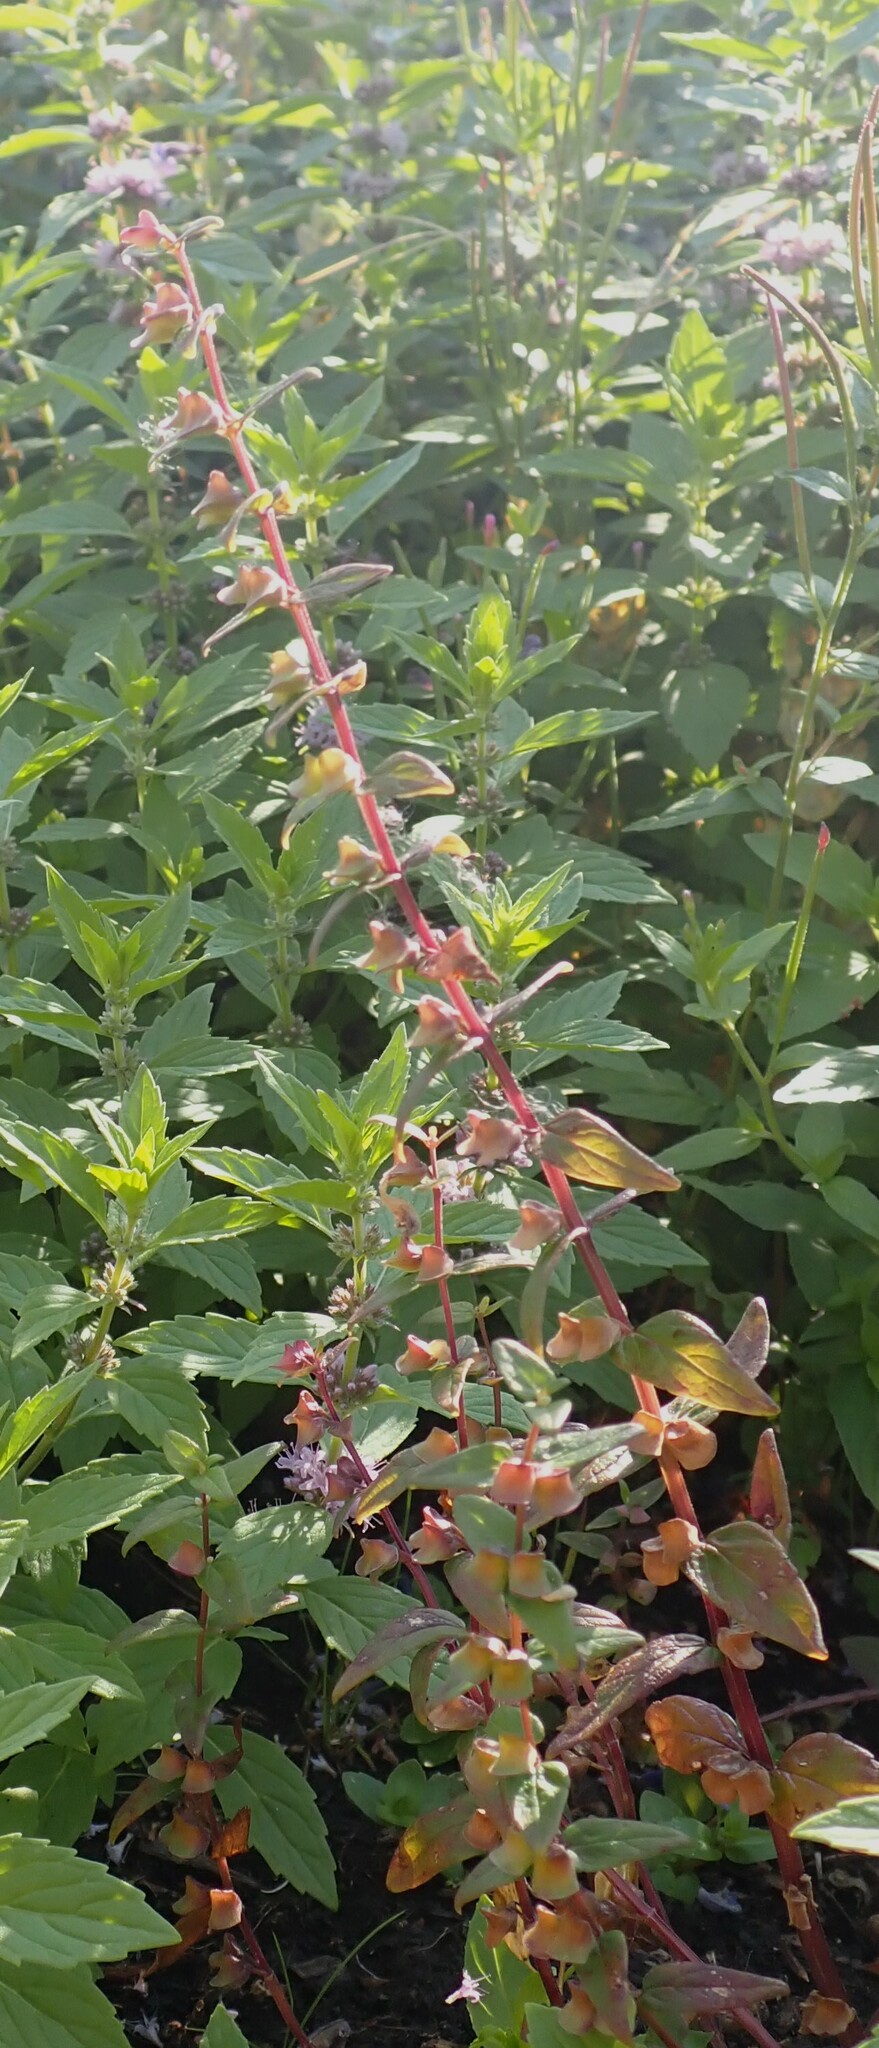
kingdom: Plantae
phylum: Tracheophyta
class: Magnoliopsida
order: Lamiales
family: Lamiaceae
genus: Scutellaria
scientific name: Scutellaria galericulata
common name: Skullcap
